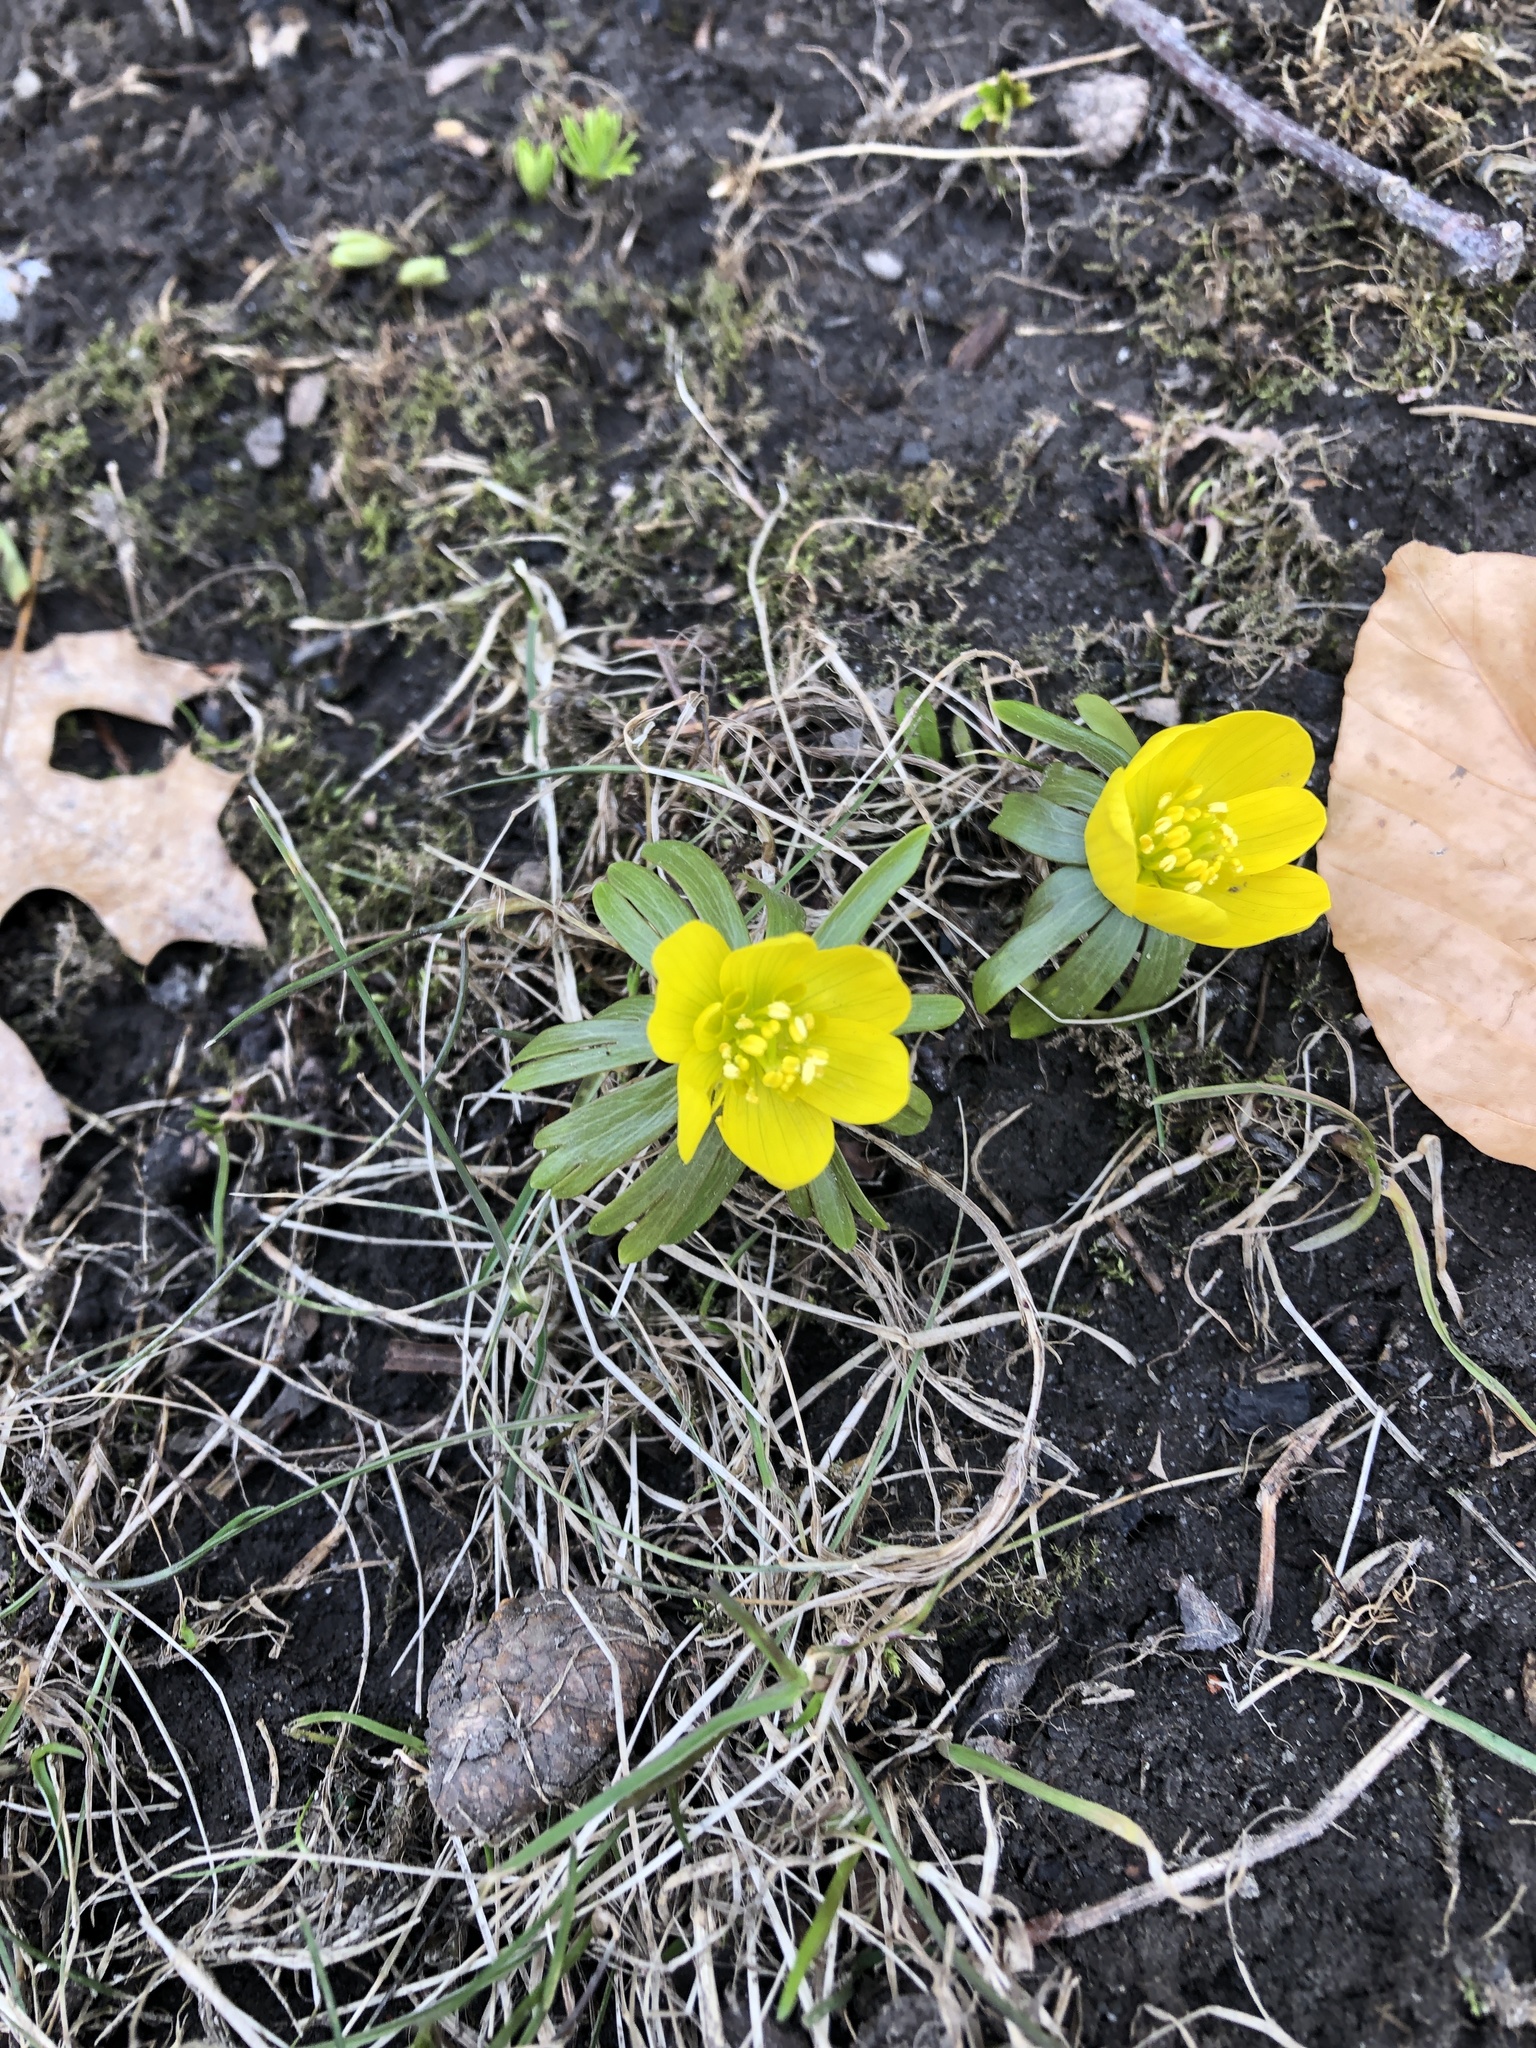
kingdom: Plantae
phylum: Tracheophyta
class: Magnoliopsida
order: Ranunculales
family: Ranunculaceae
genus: Eranthis
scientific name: Eranthis hyemalis
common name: Winter aconite
